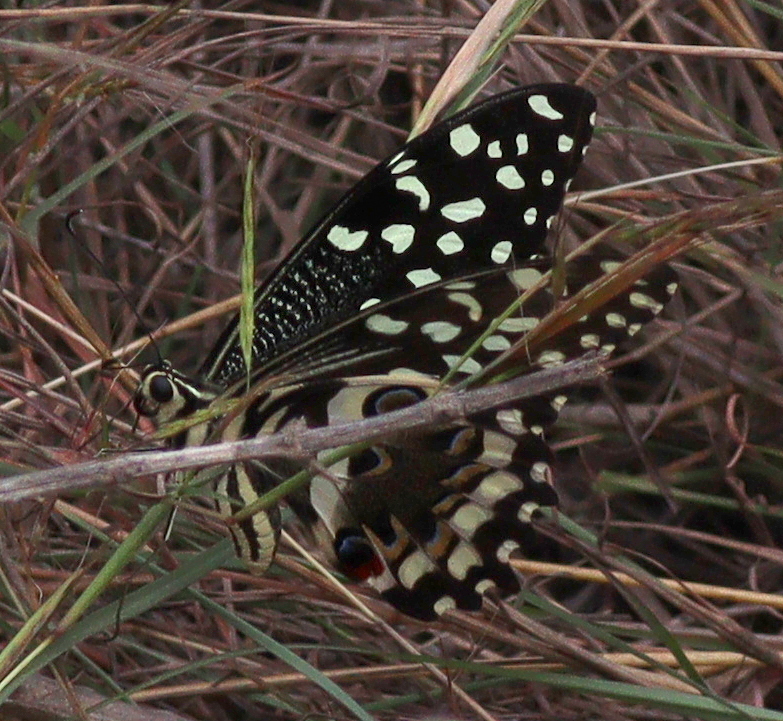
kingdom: Animalia
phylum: Arthropoda
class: Insecta
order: Lepidoptera
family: Papilionidae
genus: Papilio
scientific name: Papilio demodocus
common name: Christmas butterfly
